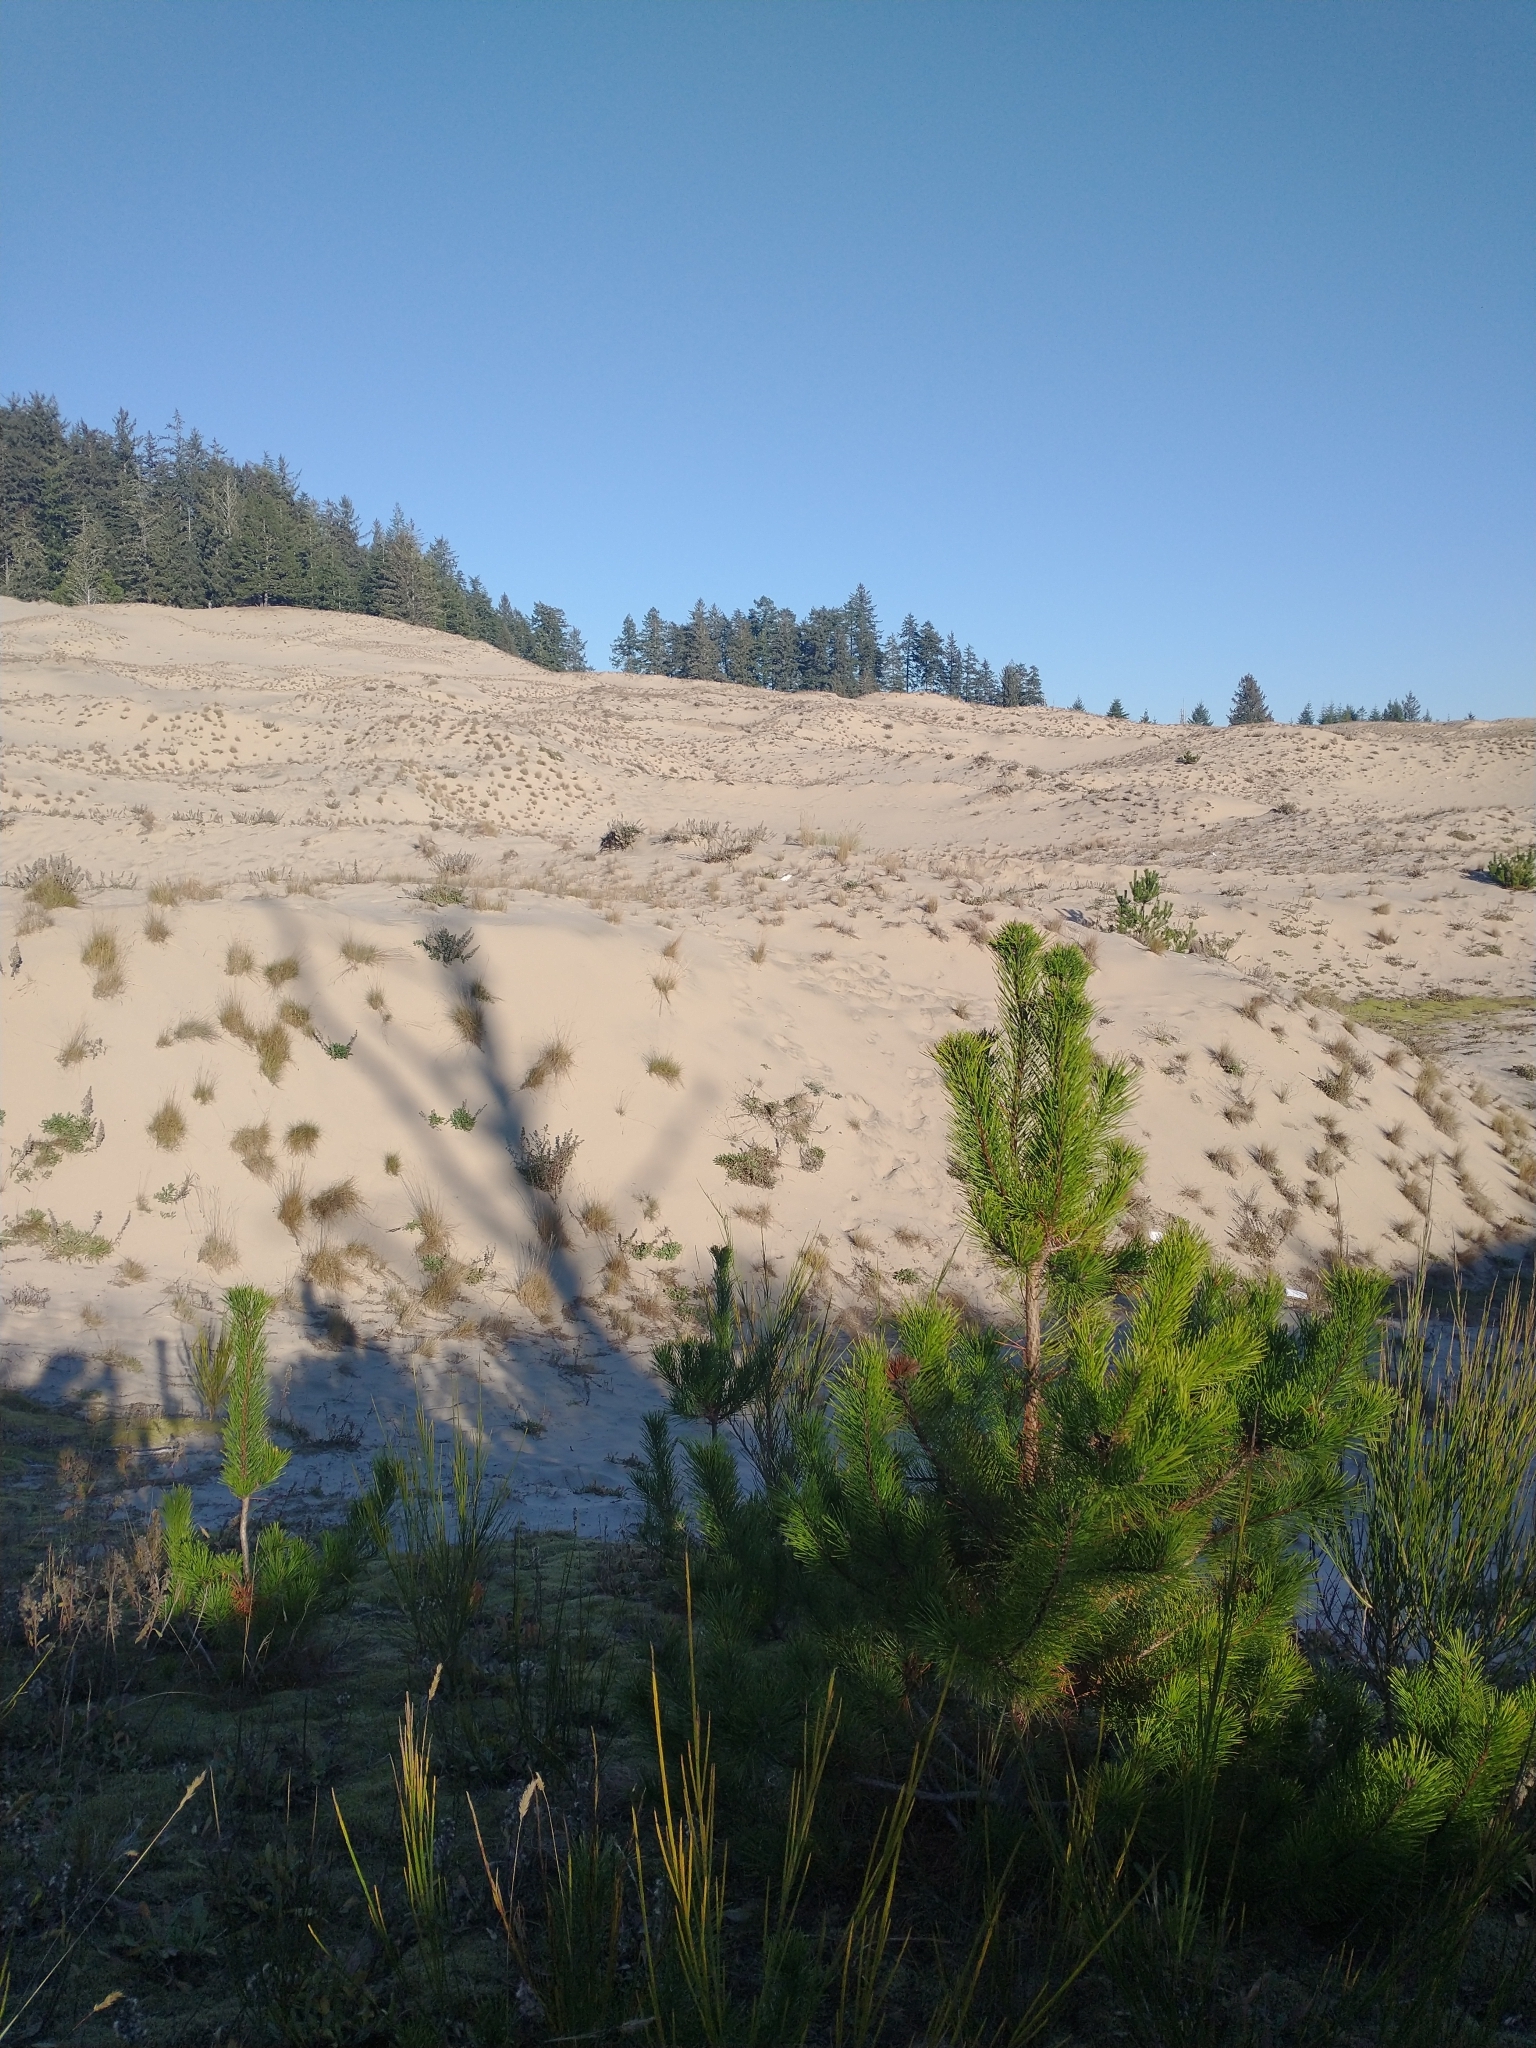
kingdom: Plantae
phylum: Tracheophyta
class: Pinopsida
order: Pinales
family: Pinaceae
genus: Pinus
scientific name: Pinus contorta
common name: Lodgepole pine
